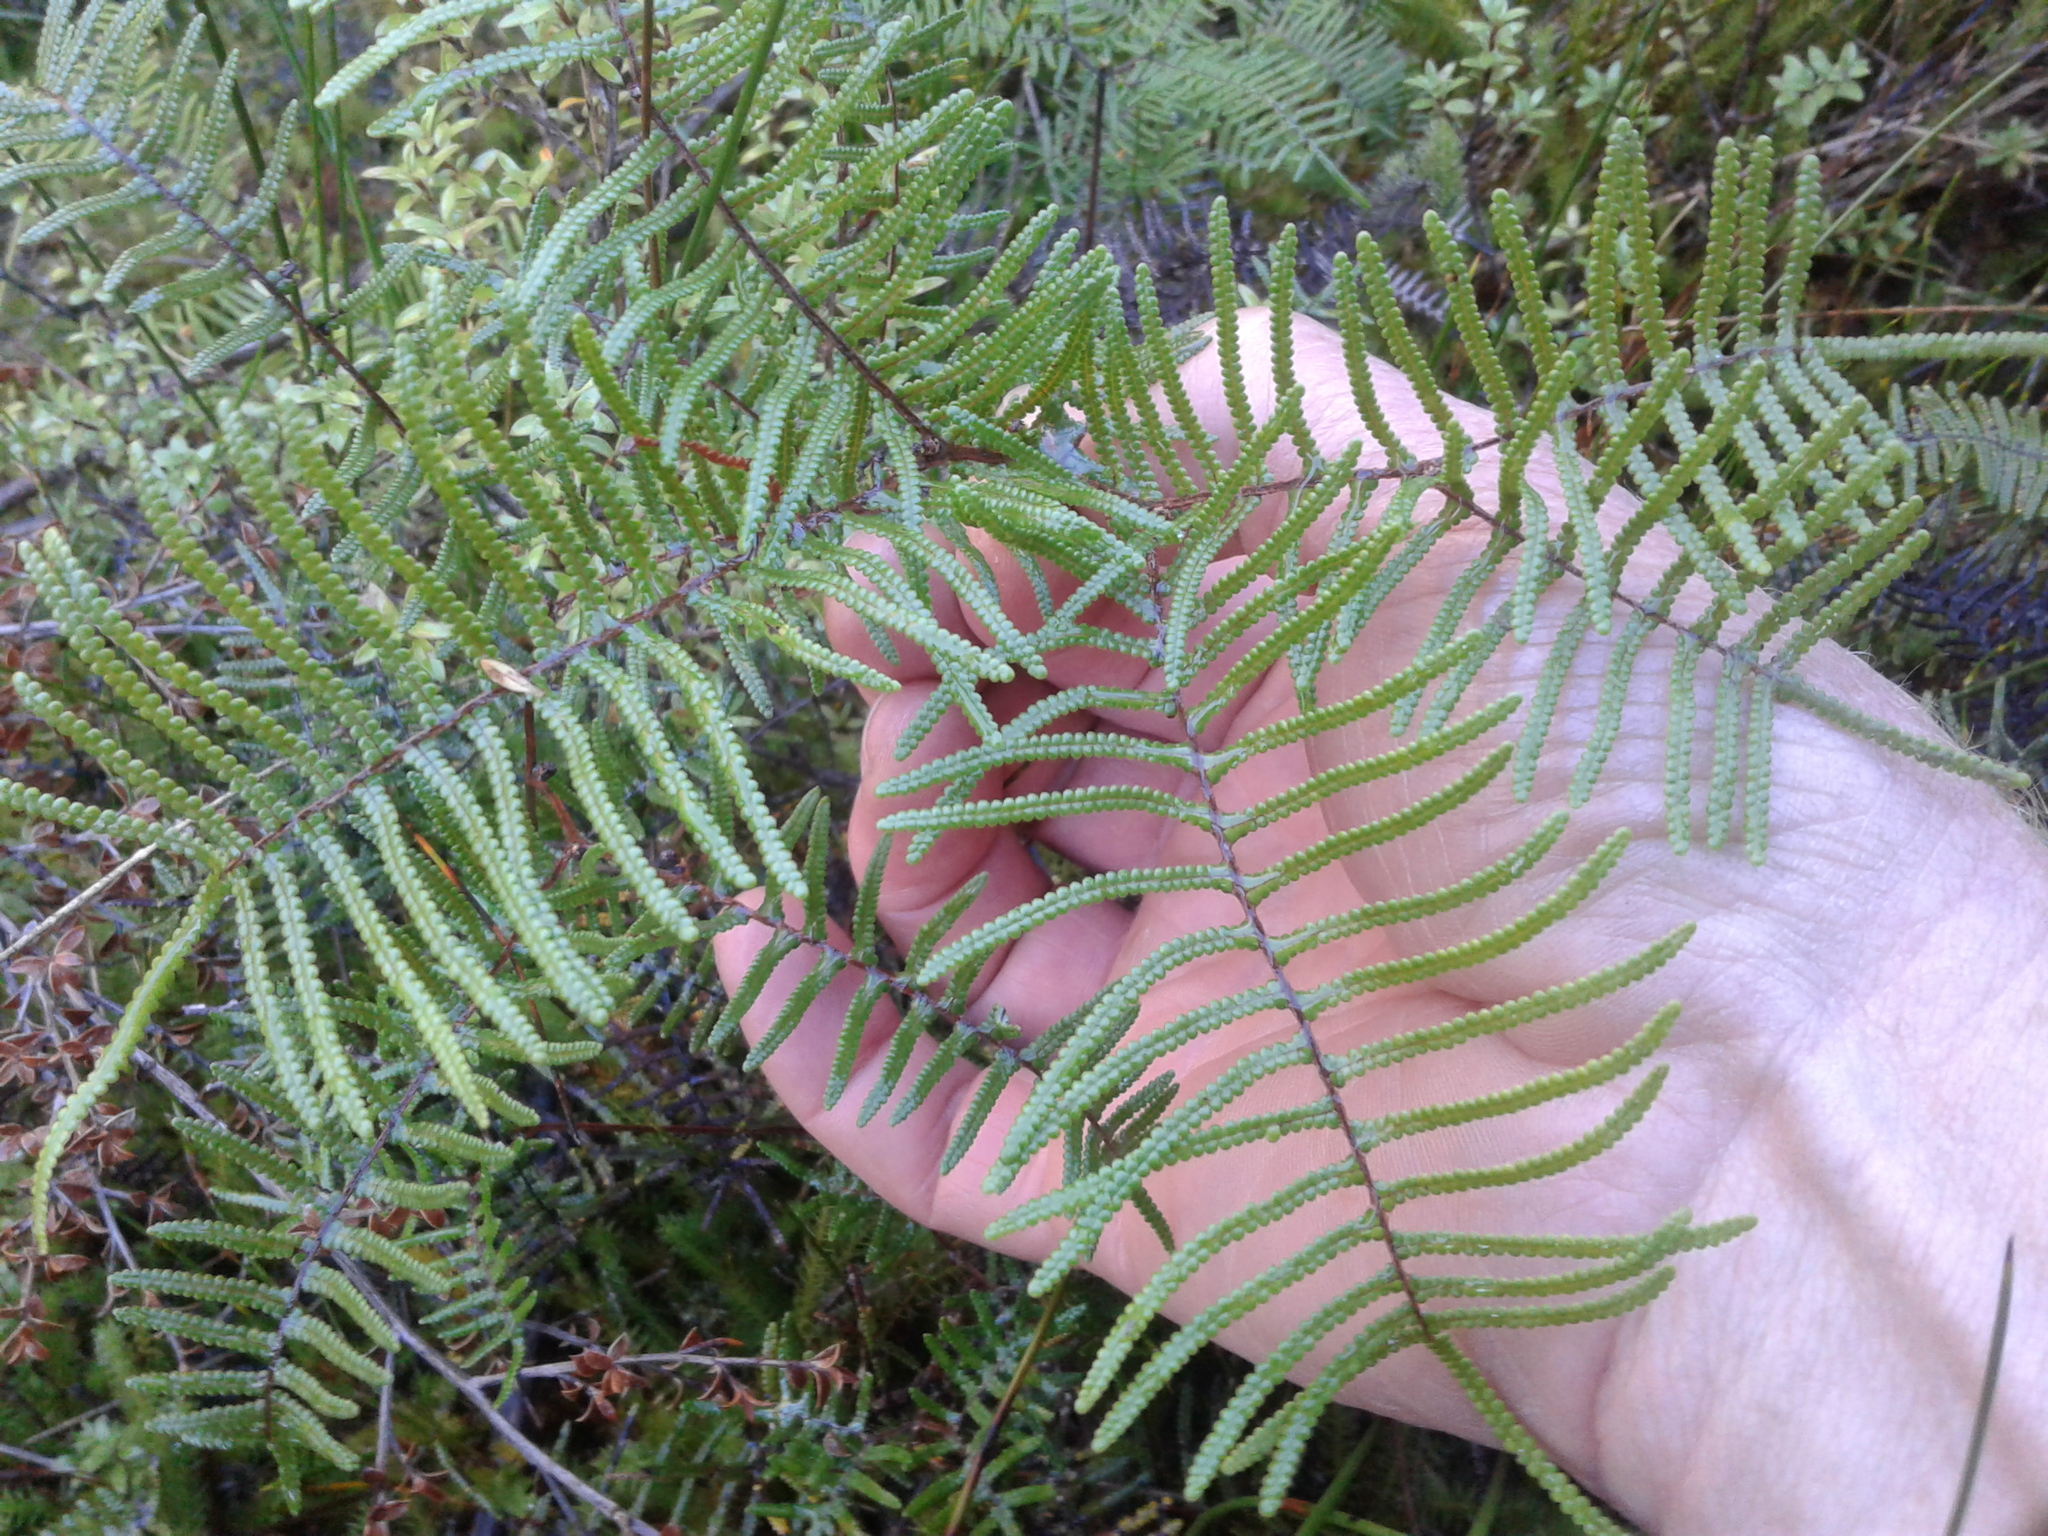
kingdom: Plantae
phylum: Tracheophyta
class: Polypodiopsida
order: Gleicheniales
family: Gleicheniaceae
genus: Gleichenia
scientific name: Gleichenia inclusisora
